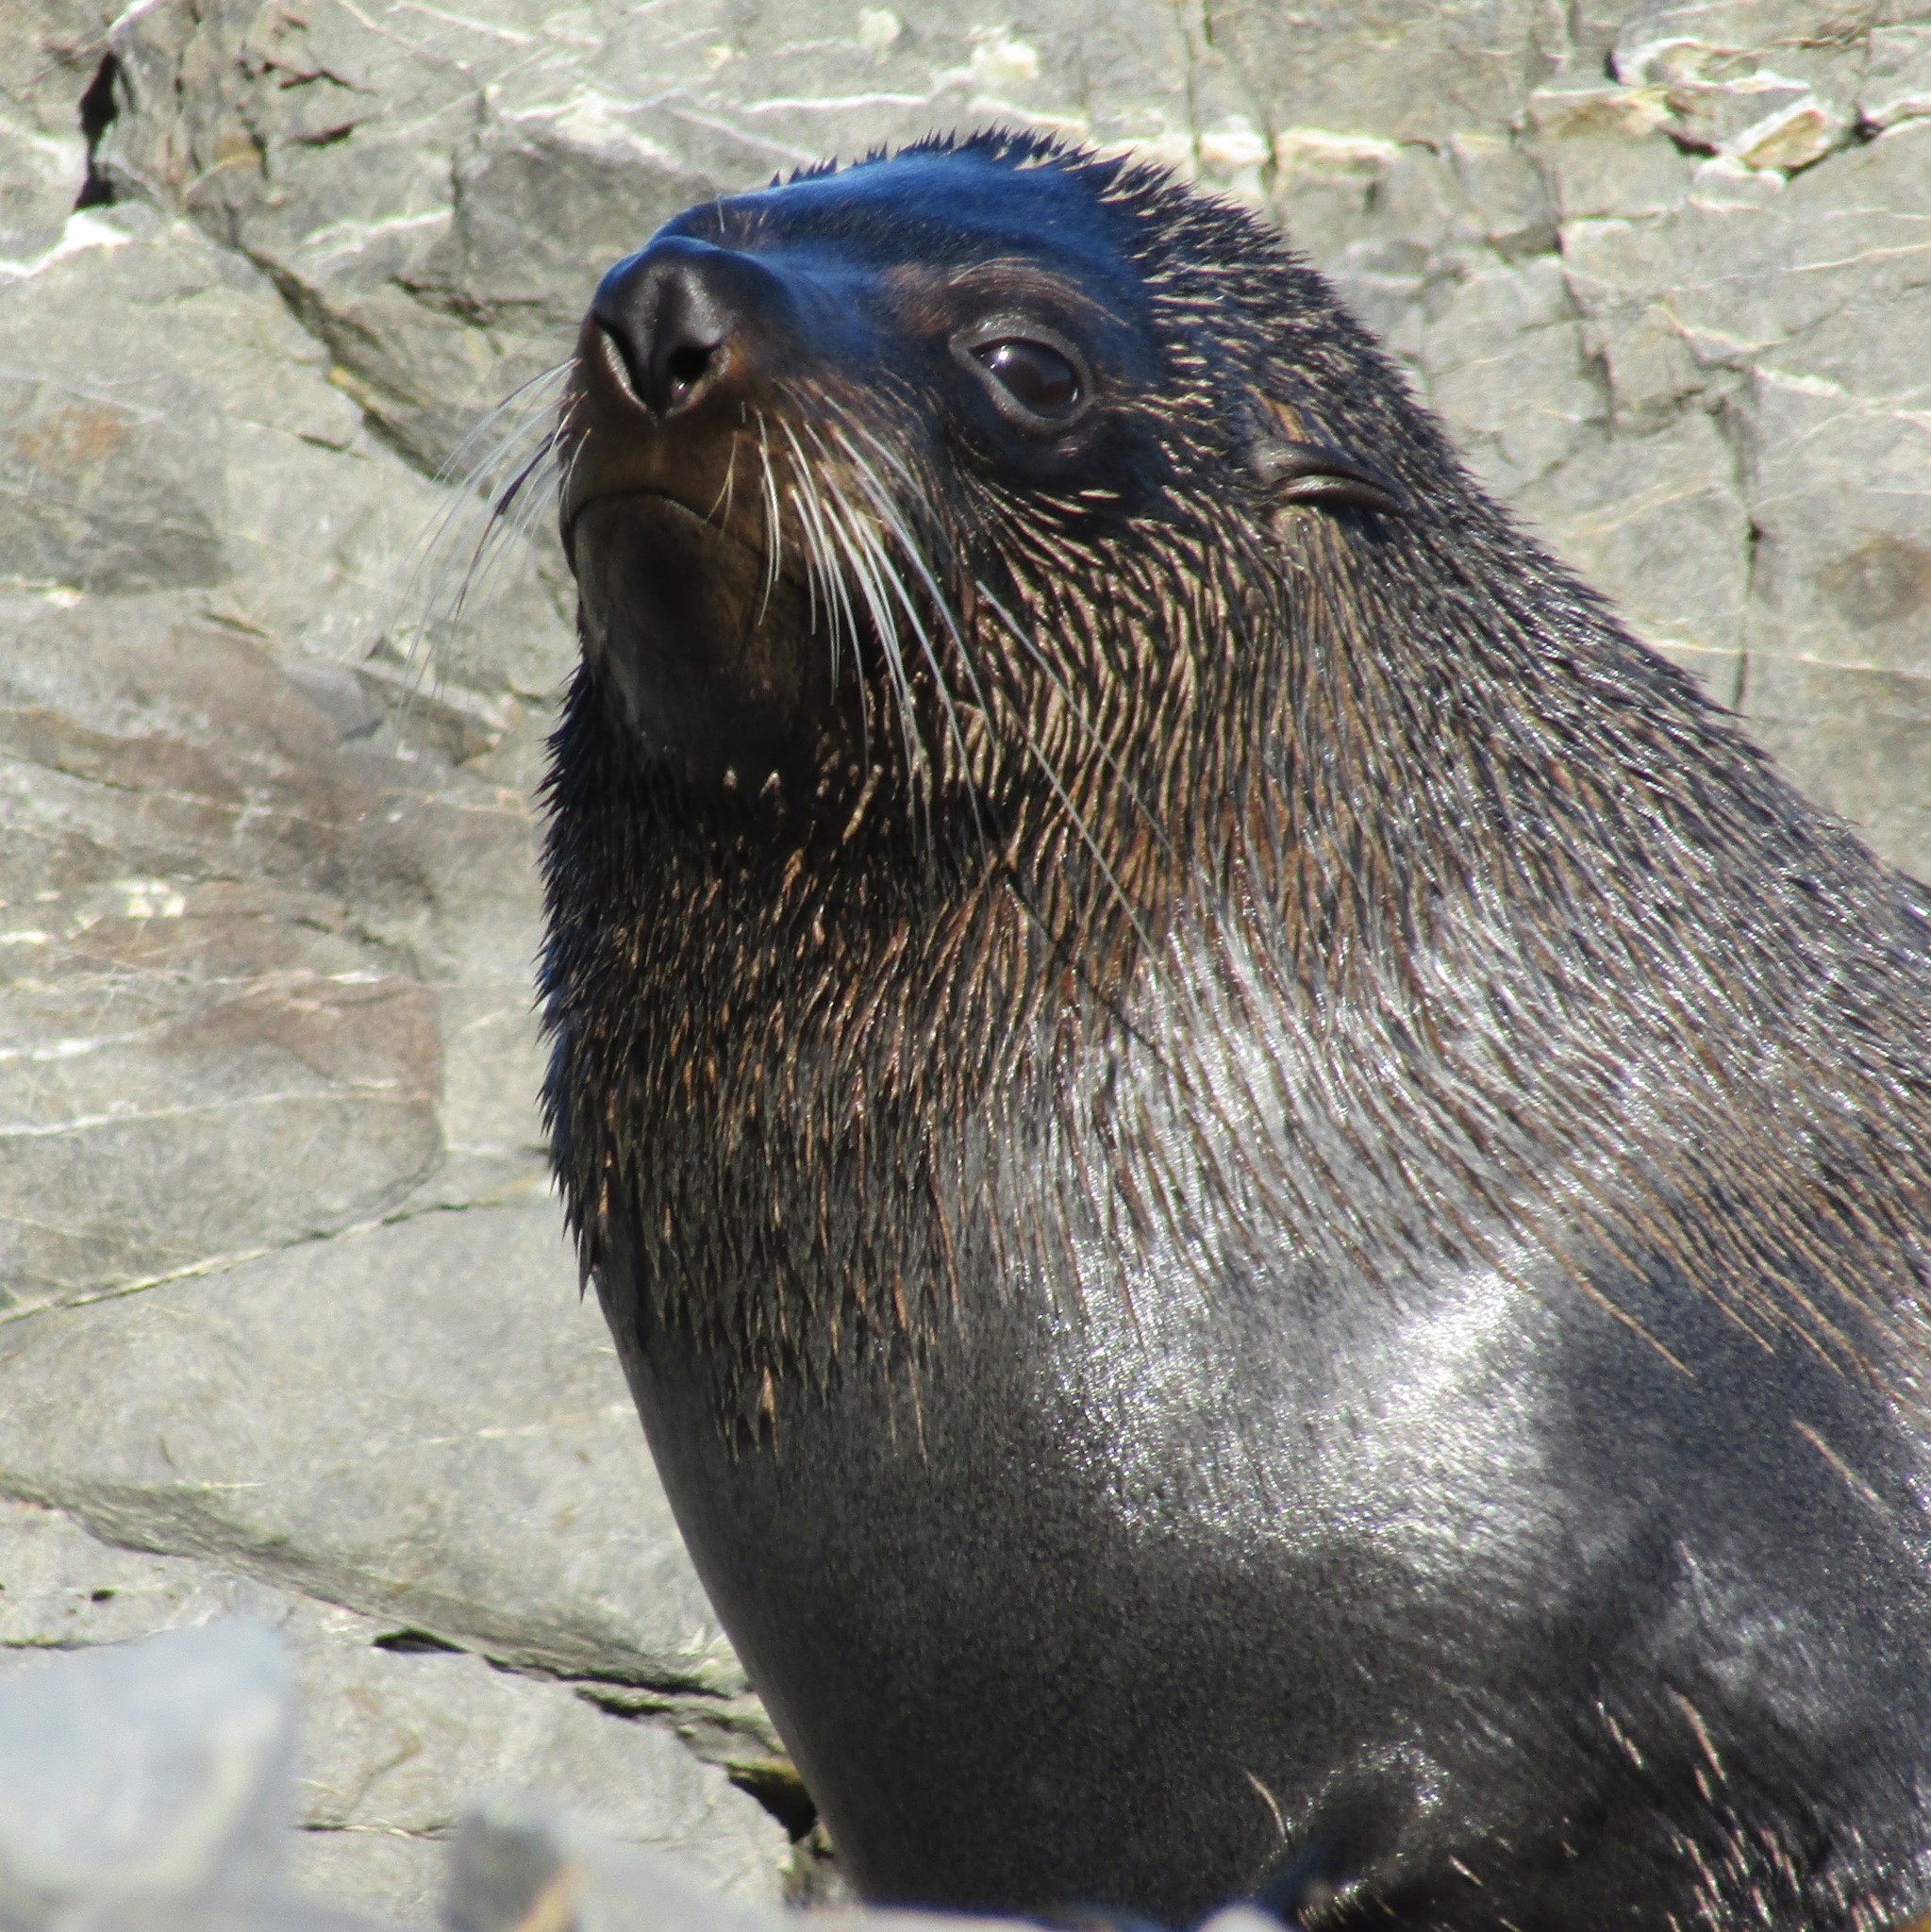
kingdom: Animalia
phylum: Chordata
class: Mammalia
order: Carnivora
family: Otariidae
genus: Arctocephalus
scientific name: Arctocephalus forsteri
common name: New zealand fur seal
